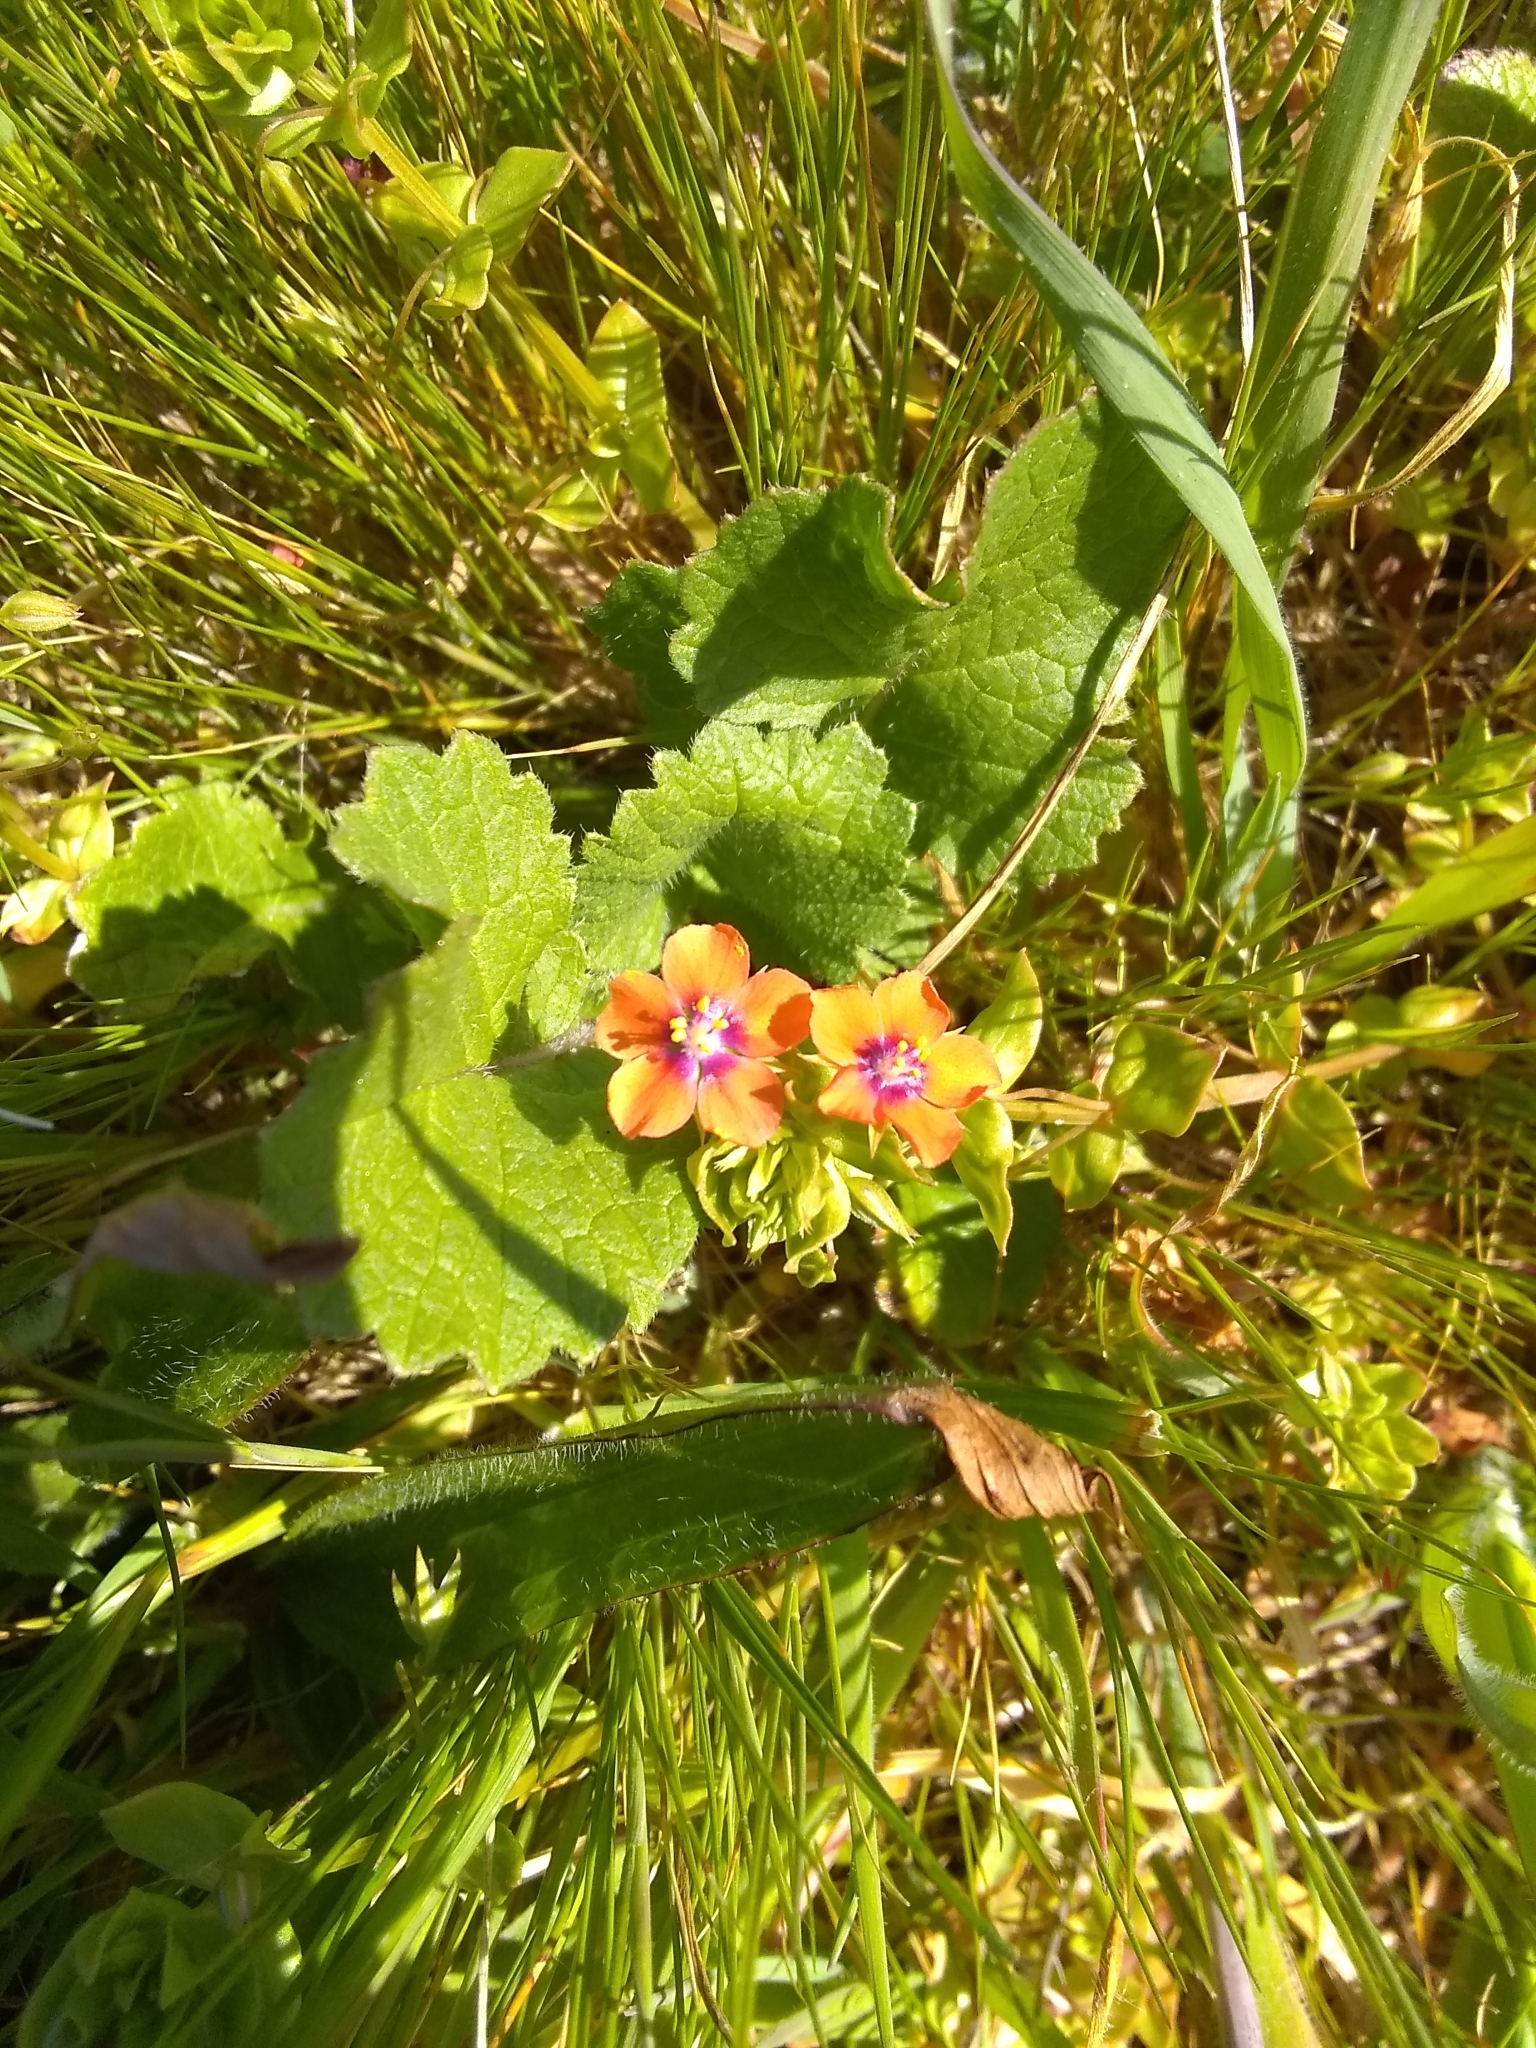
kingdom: Plantae
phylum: Tracheophyta
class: Magnoliopsida
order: Ericales
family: Primulaceae
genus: Lysimachia
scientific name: Lysimachia arvensis
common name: Scarlet pimpernel
